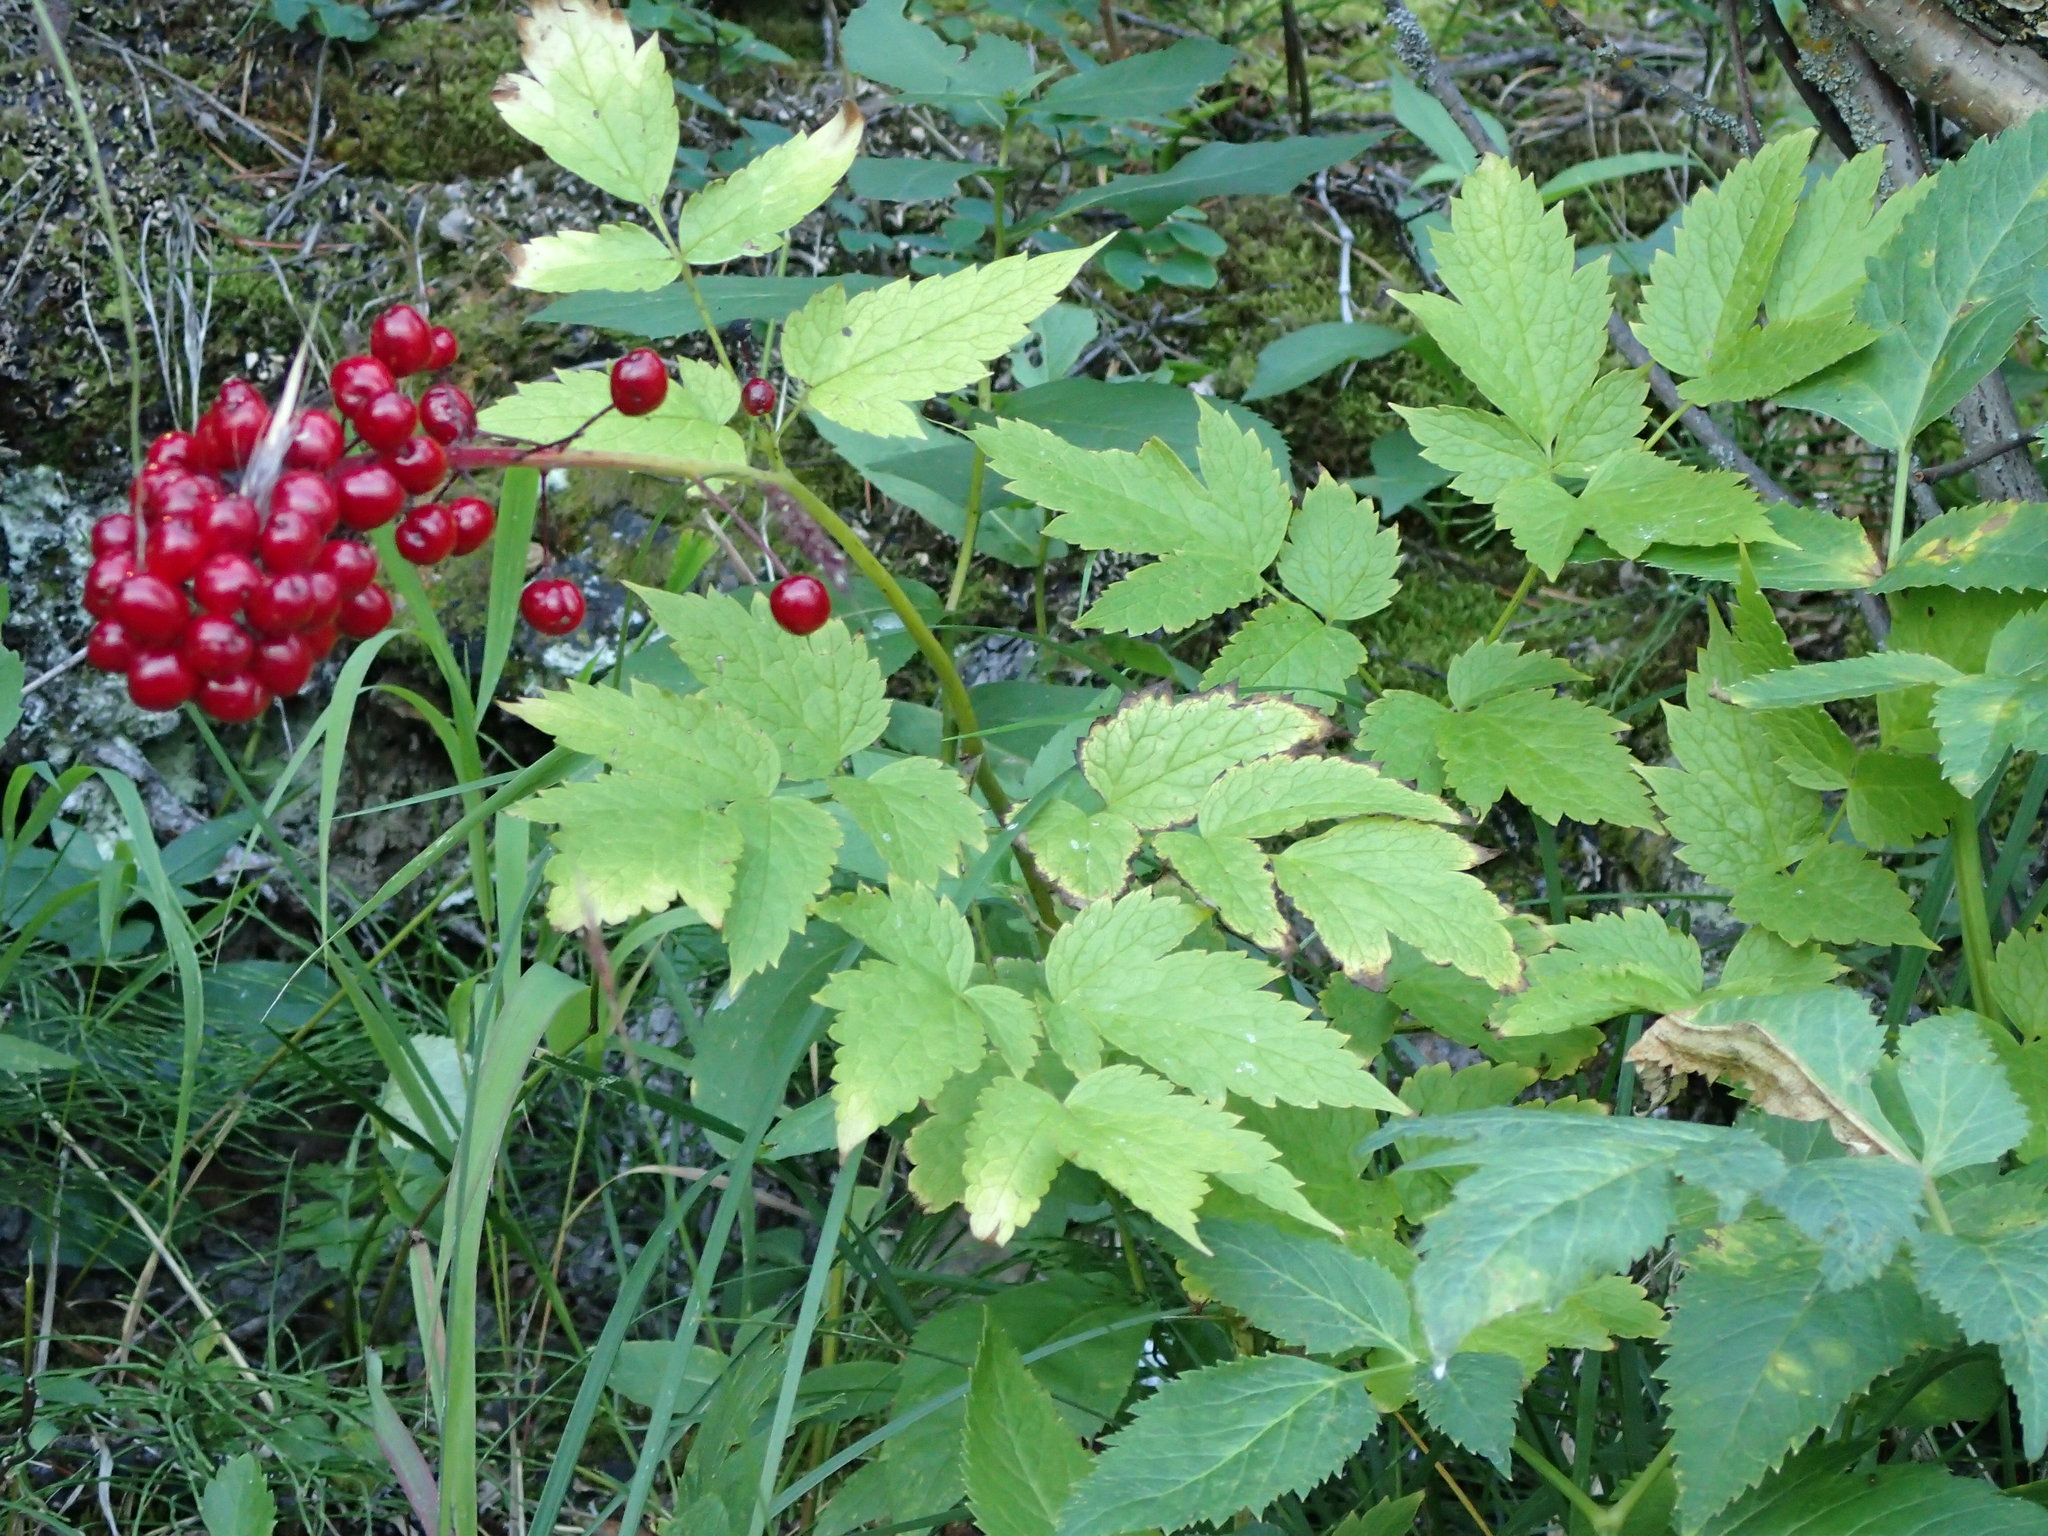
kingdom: Plantae
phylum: Tracheophyta
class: Magnoliopsida
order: Ranunculales
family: Ranunculaceae
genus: Actaea
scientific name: Actaea rubra
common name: Red baneberry
